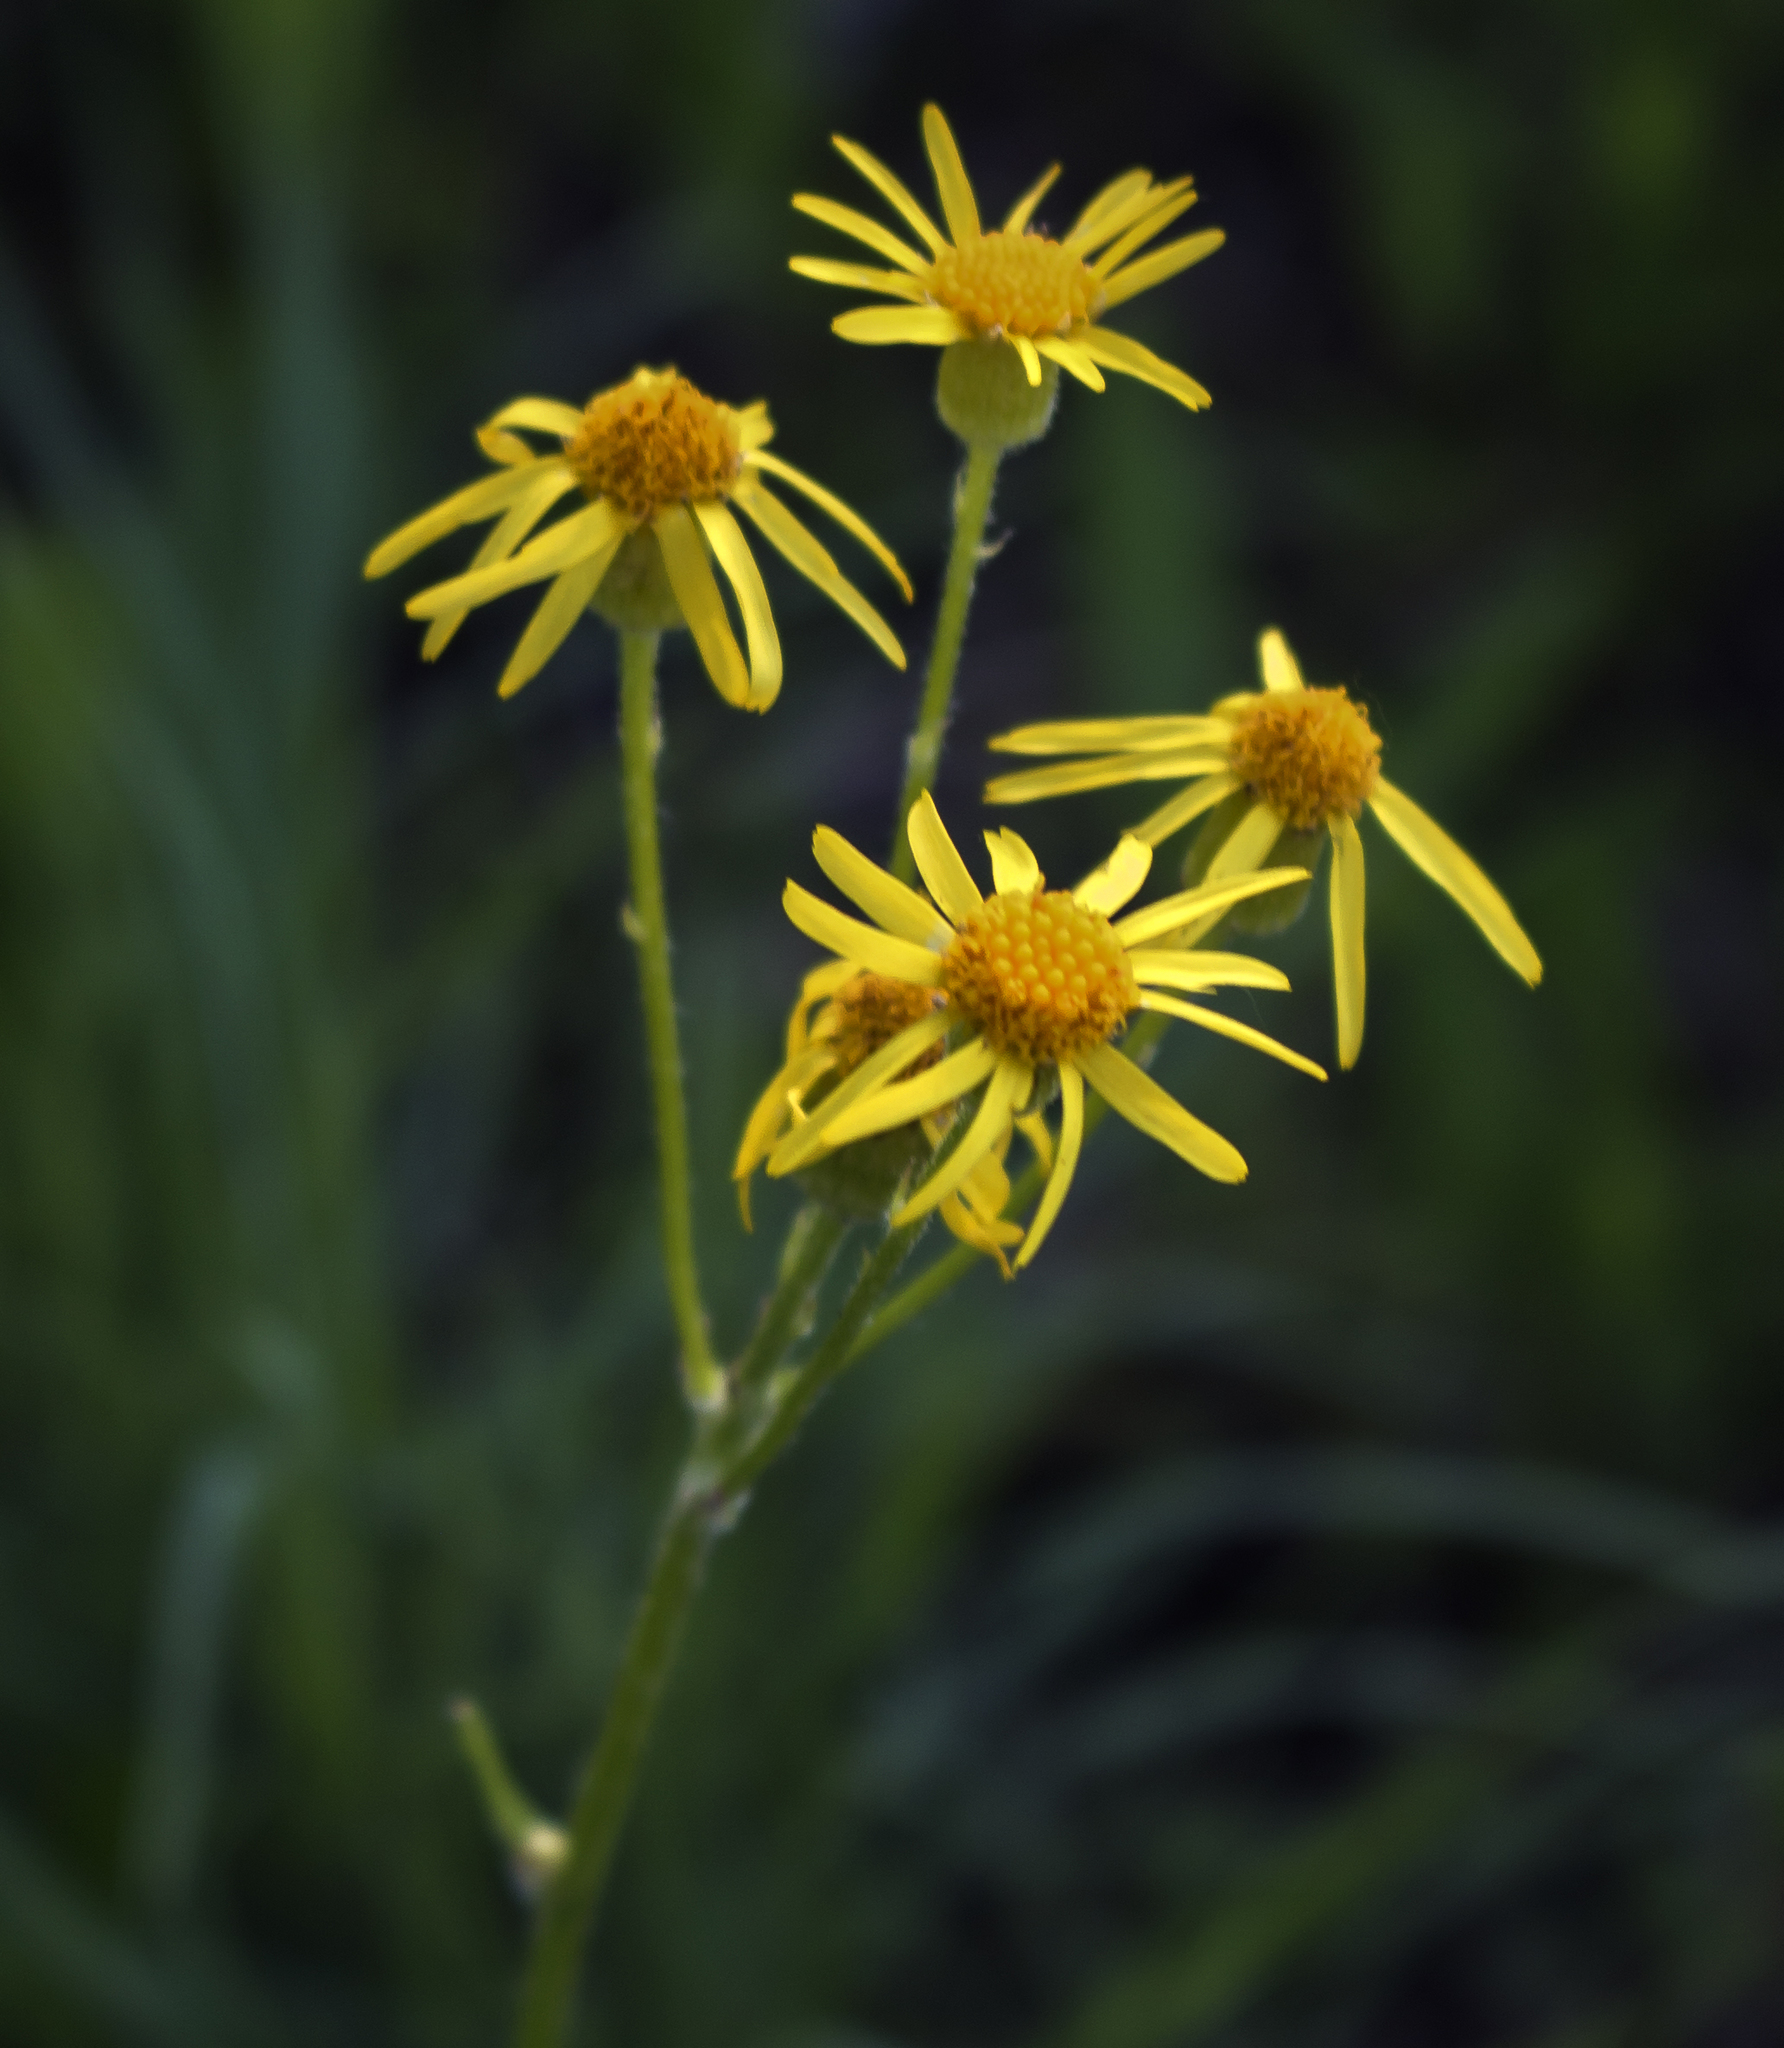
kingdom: Plantae
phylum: Tracheophyta
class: Magnoliopsida
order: Asterales
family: Asteraceae
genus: Packera
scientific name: Packera paupercula
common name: Balsam groundsel
